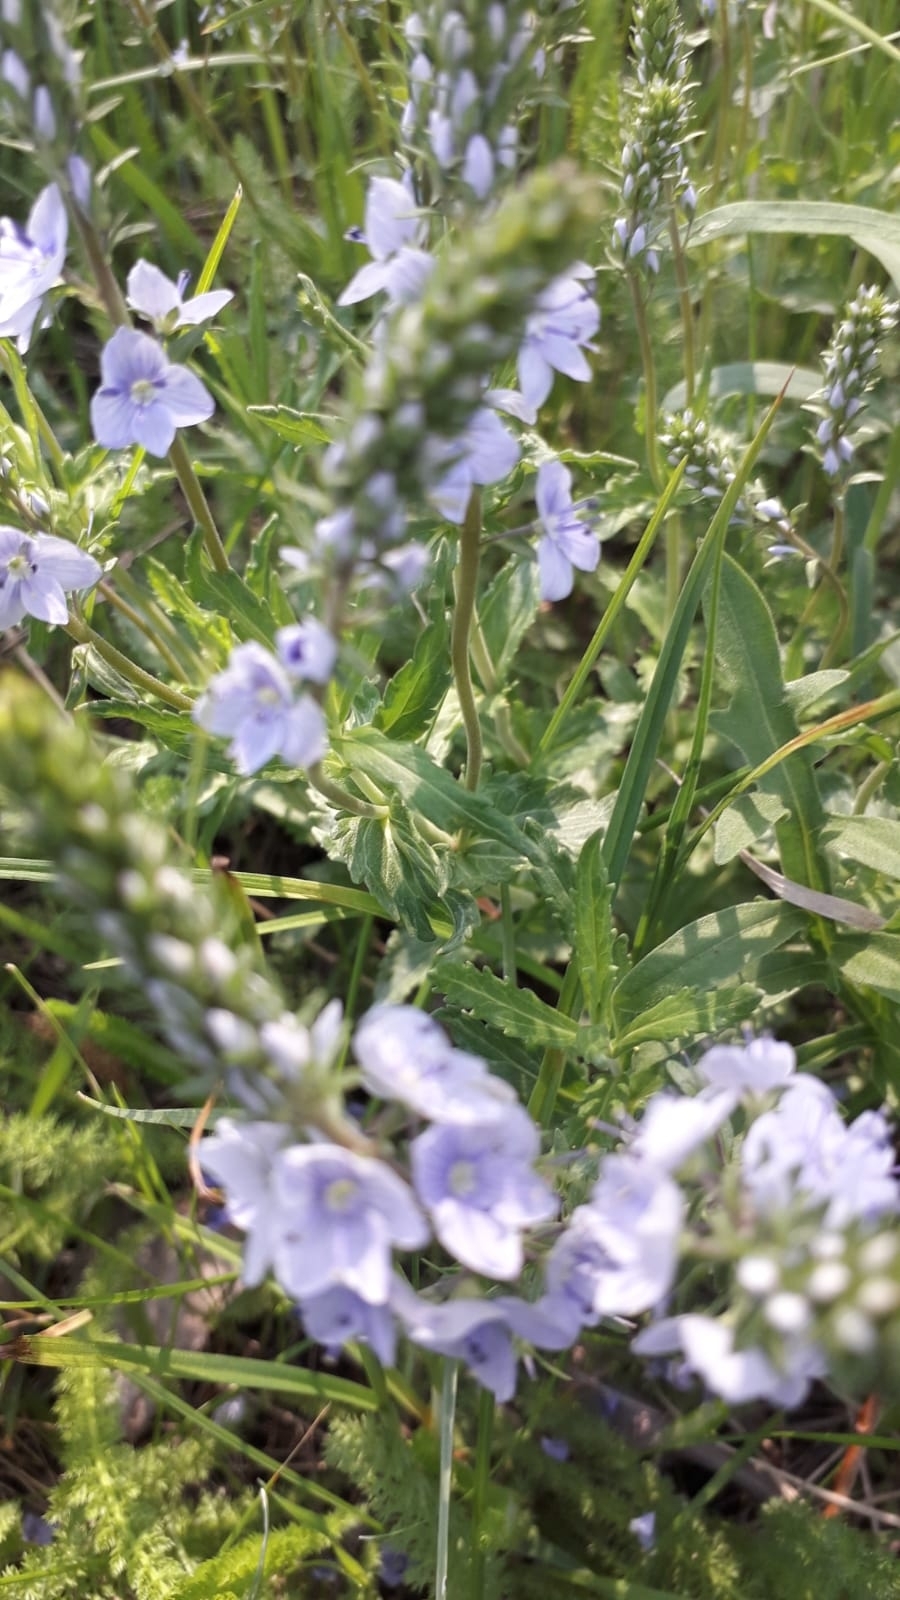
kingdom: Plantae
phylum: Tracheophyta
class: Magnoliopsida
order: Lamiales
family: Plantaginaceae
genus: Veronica
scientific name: Veronica prostrata
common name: Prostrate speedwell
